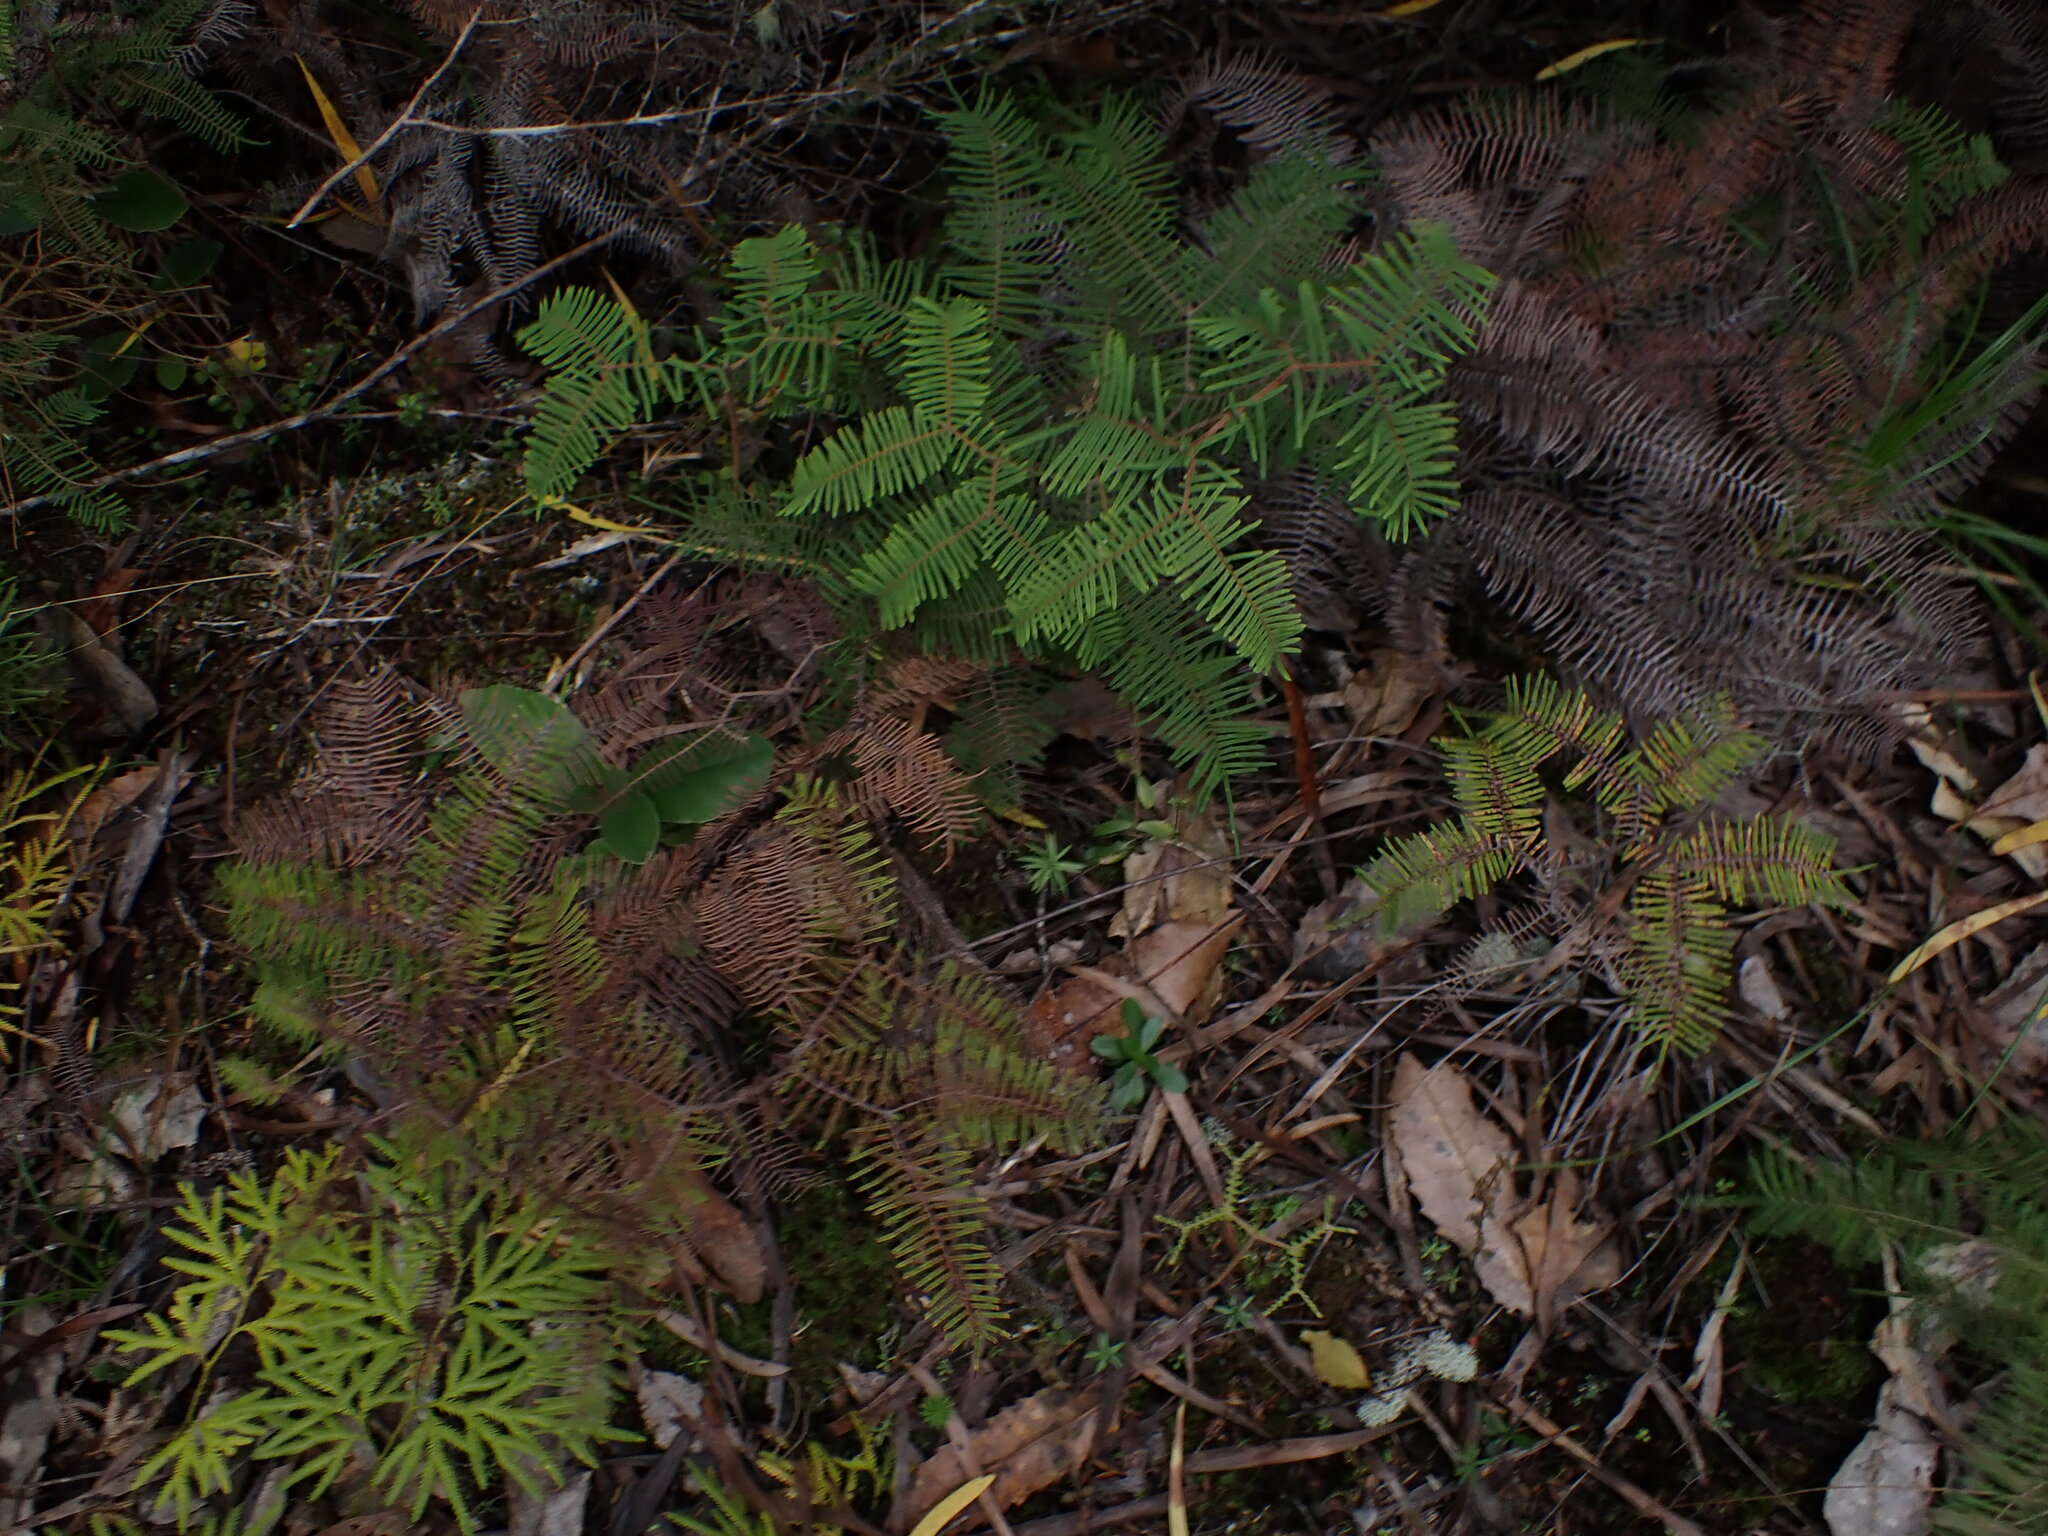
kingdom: Plantae
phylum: Tracheophyta
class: Polypodiopsida
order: Gleicheniales
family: Gleicheniaceae
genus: Gleichenia
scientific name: Gleichenia dicarpa
